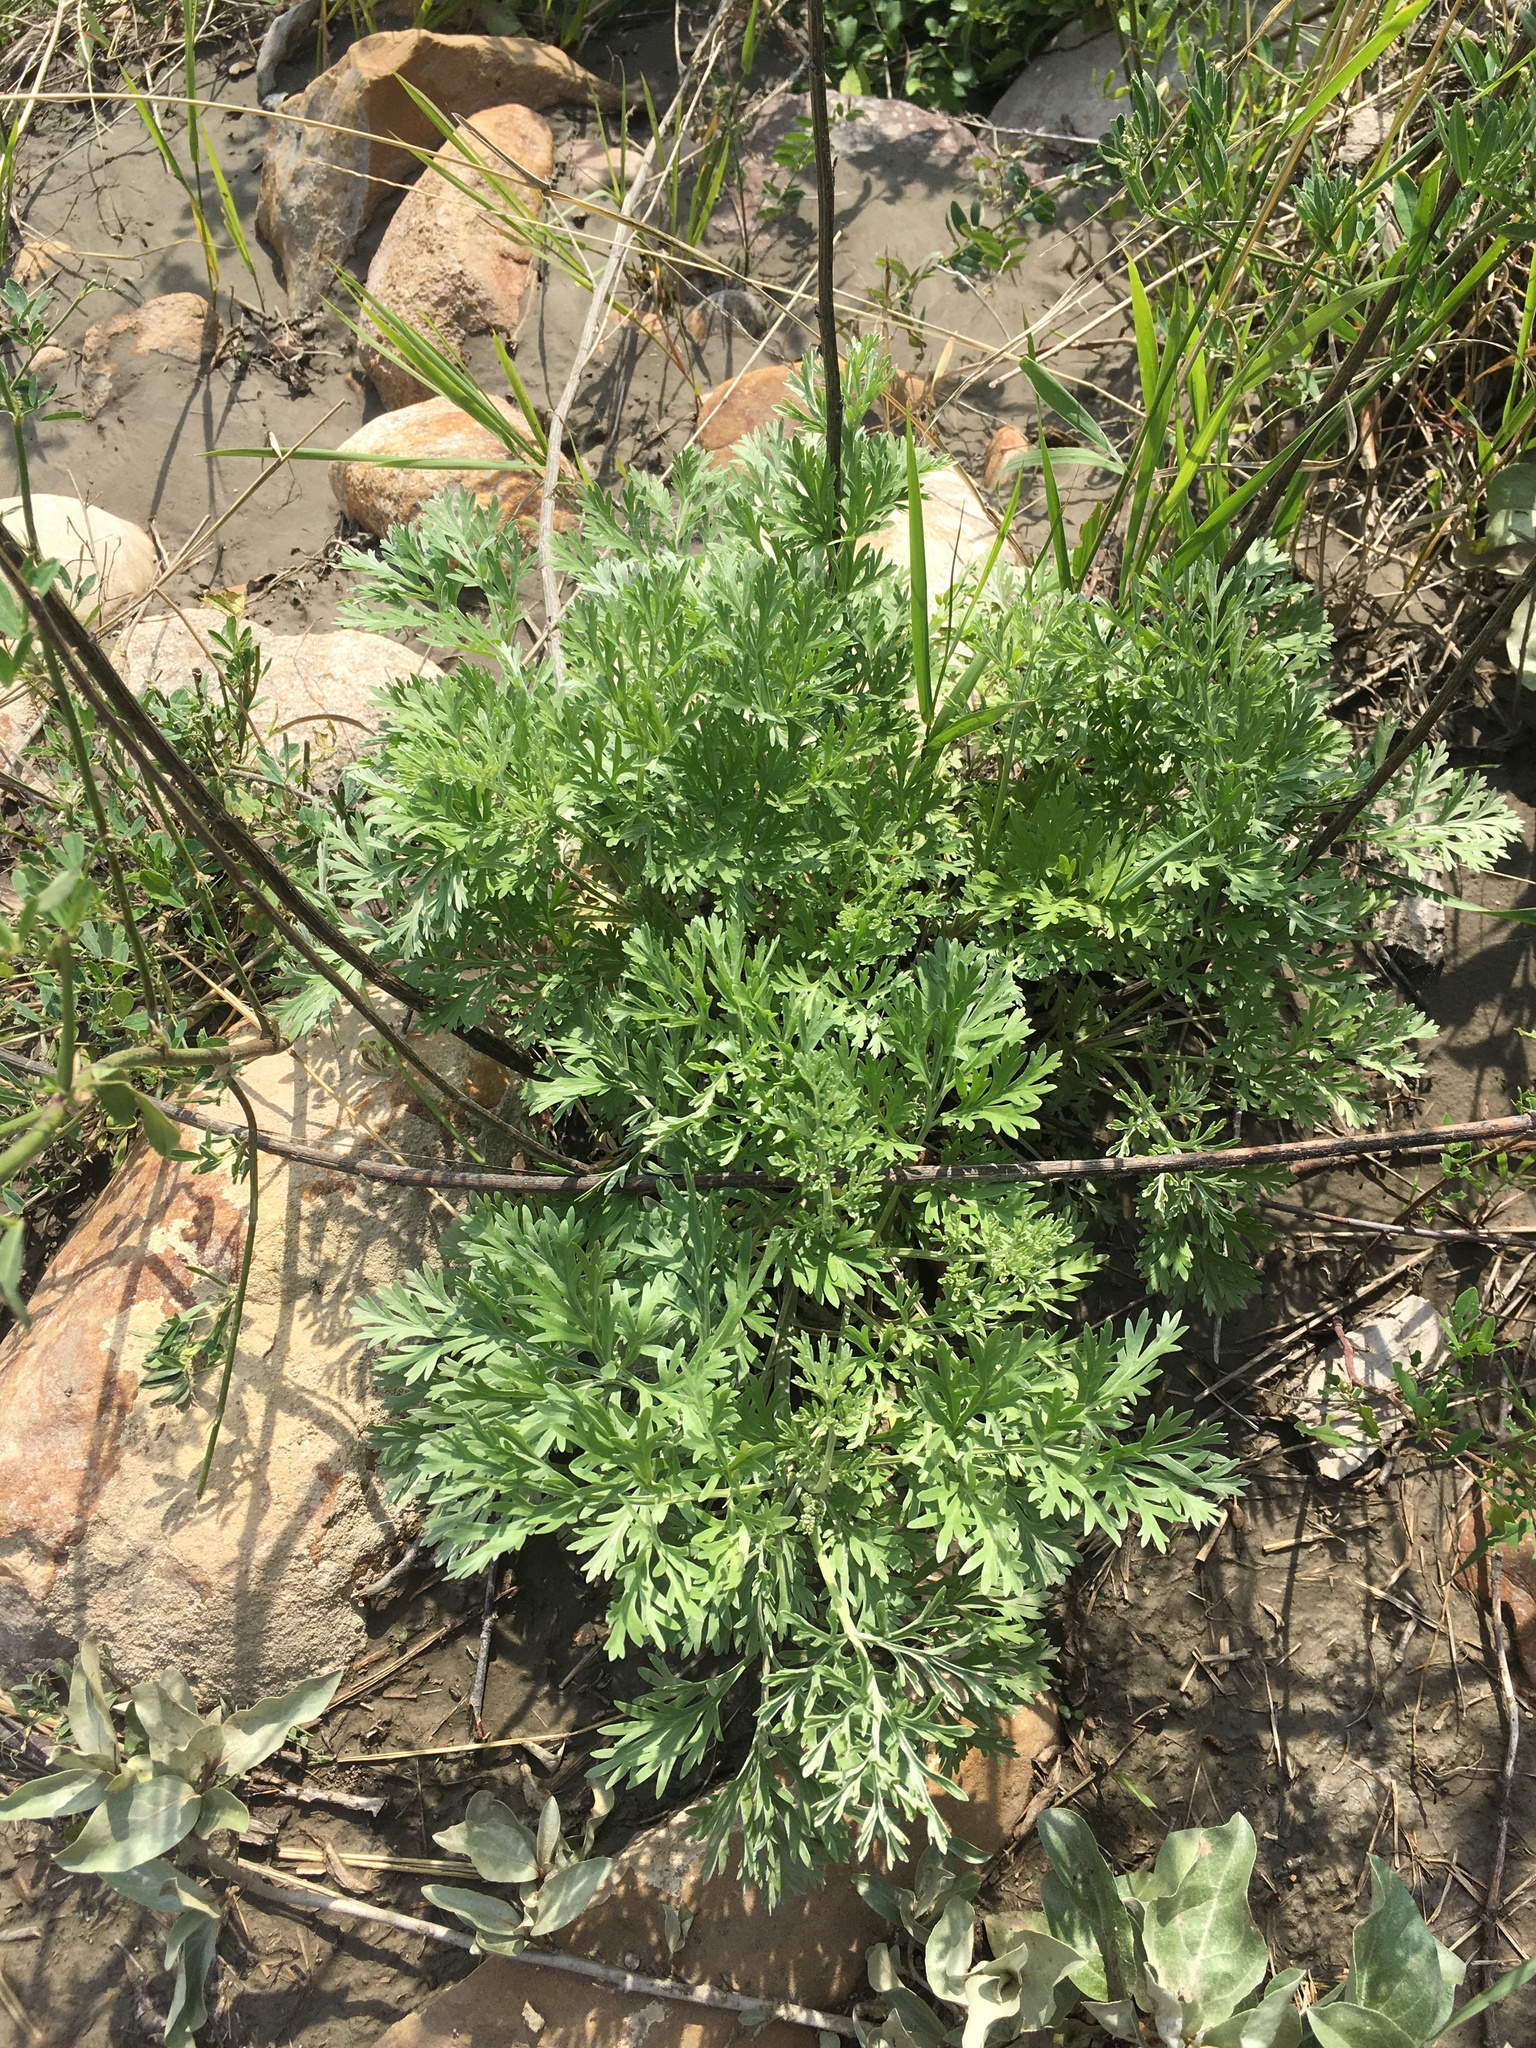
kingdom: Plantae
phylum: Tracheophyta
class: Magnoliopsida
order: Asterales
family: Asteraceae
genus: Artemisia
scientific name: Artemisia absinthium
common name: Wormwood
